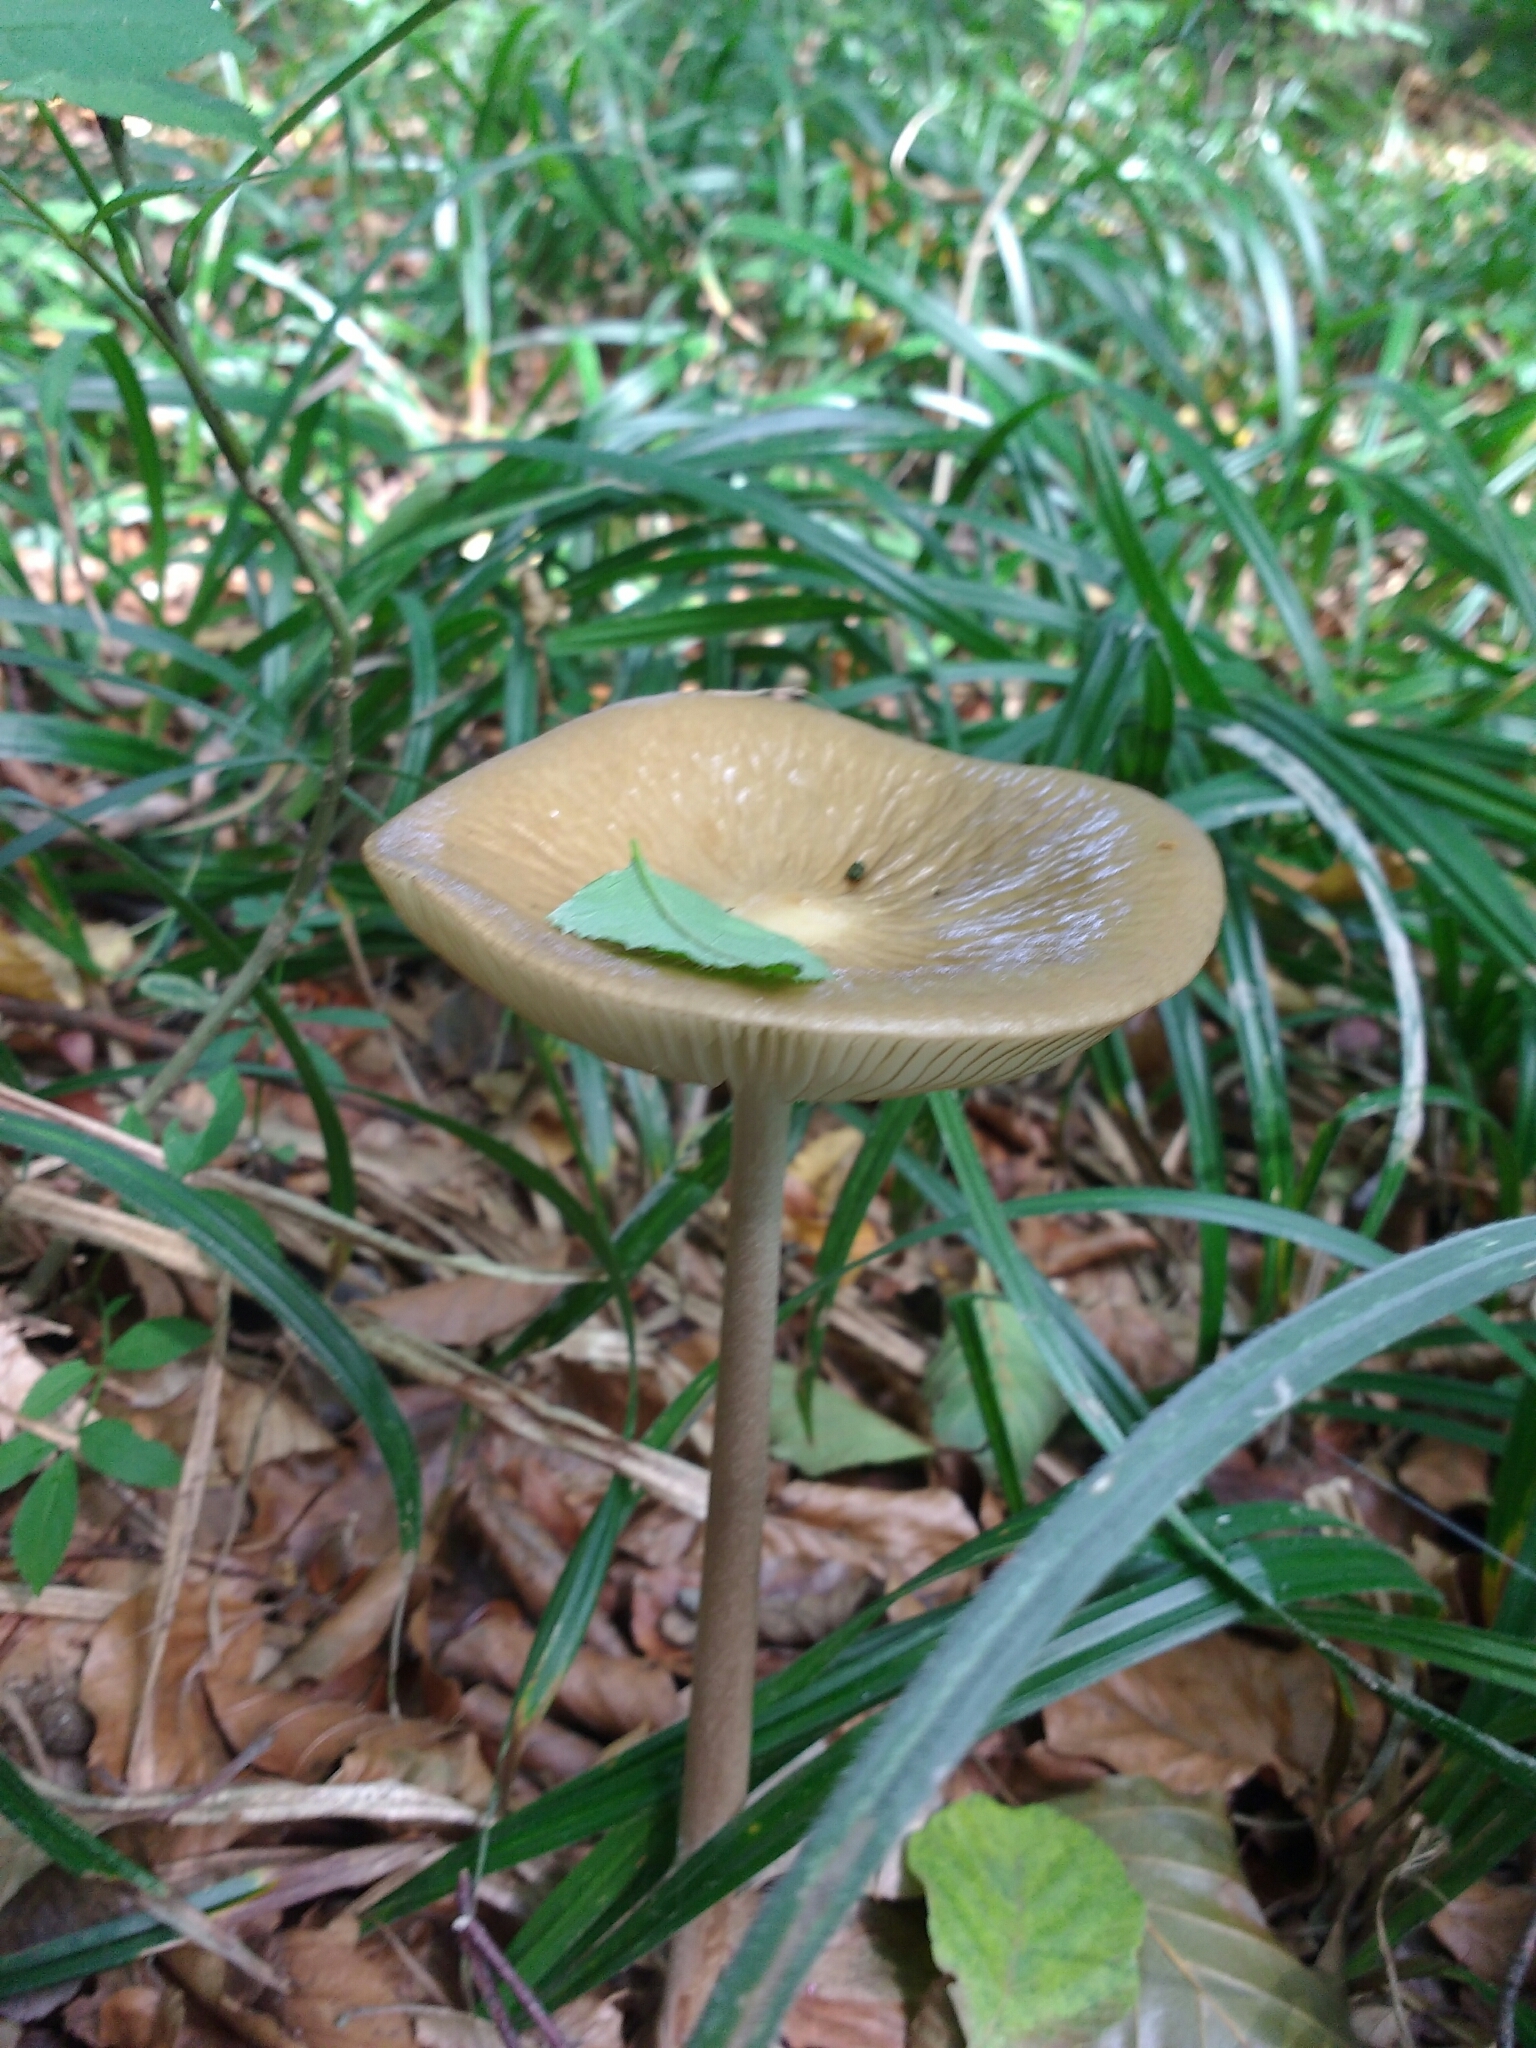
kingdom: Fungi
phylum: Basidiomycota
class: Agaricomycetes
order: Agaricales
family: Physalacriaceae
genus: Hymenopellis
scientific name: Hymenopellis radicata
